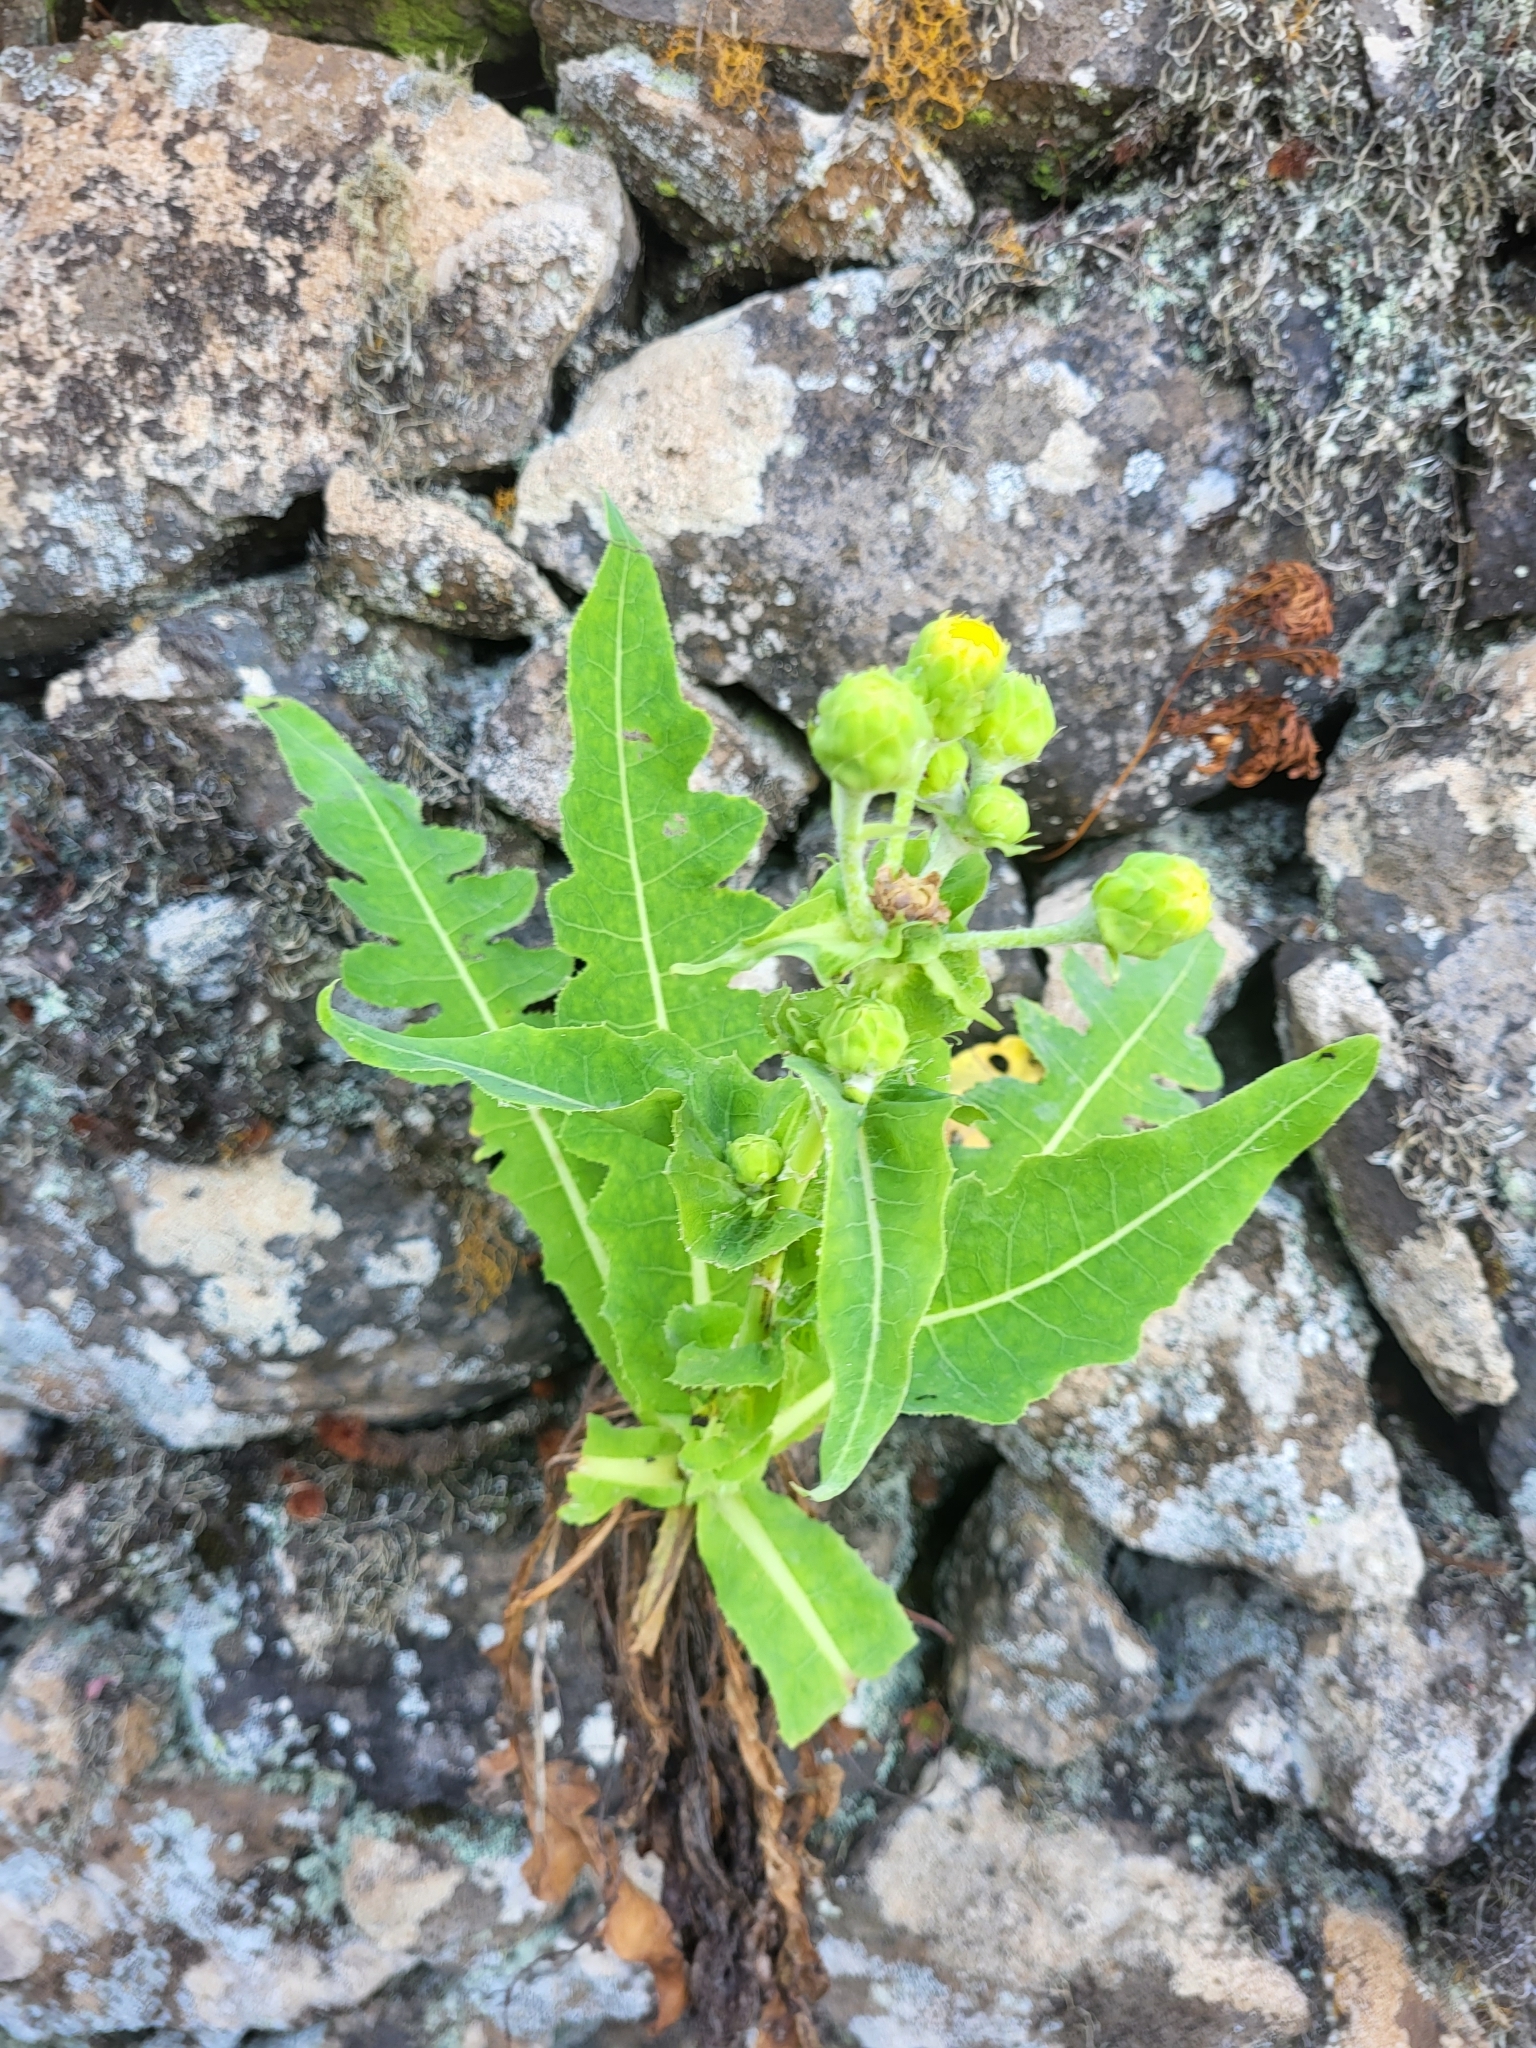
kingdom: Plantae
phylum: Tracheophyta
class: Magnoliopsida
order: Asterales
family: Asteraceae
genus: Sonchus
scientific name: Sonchus daltonii
